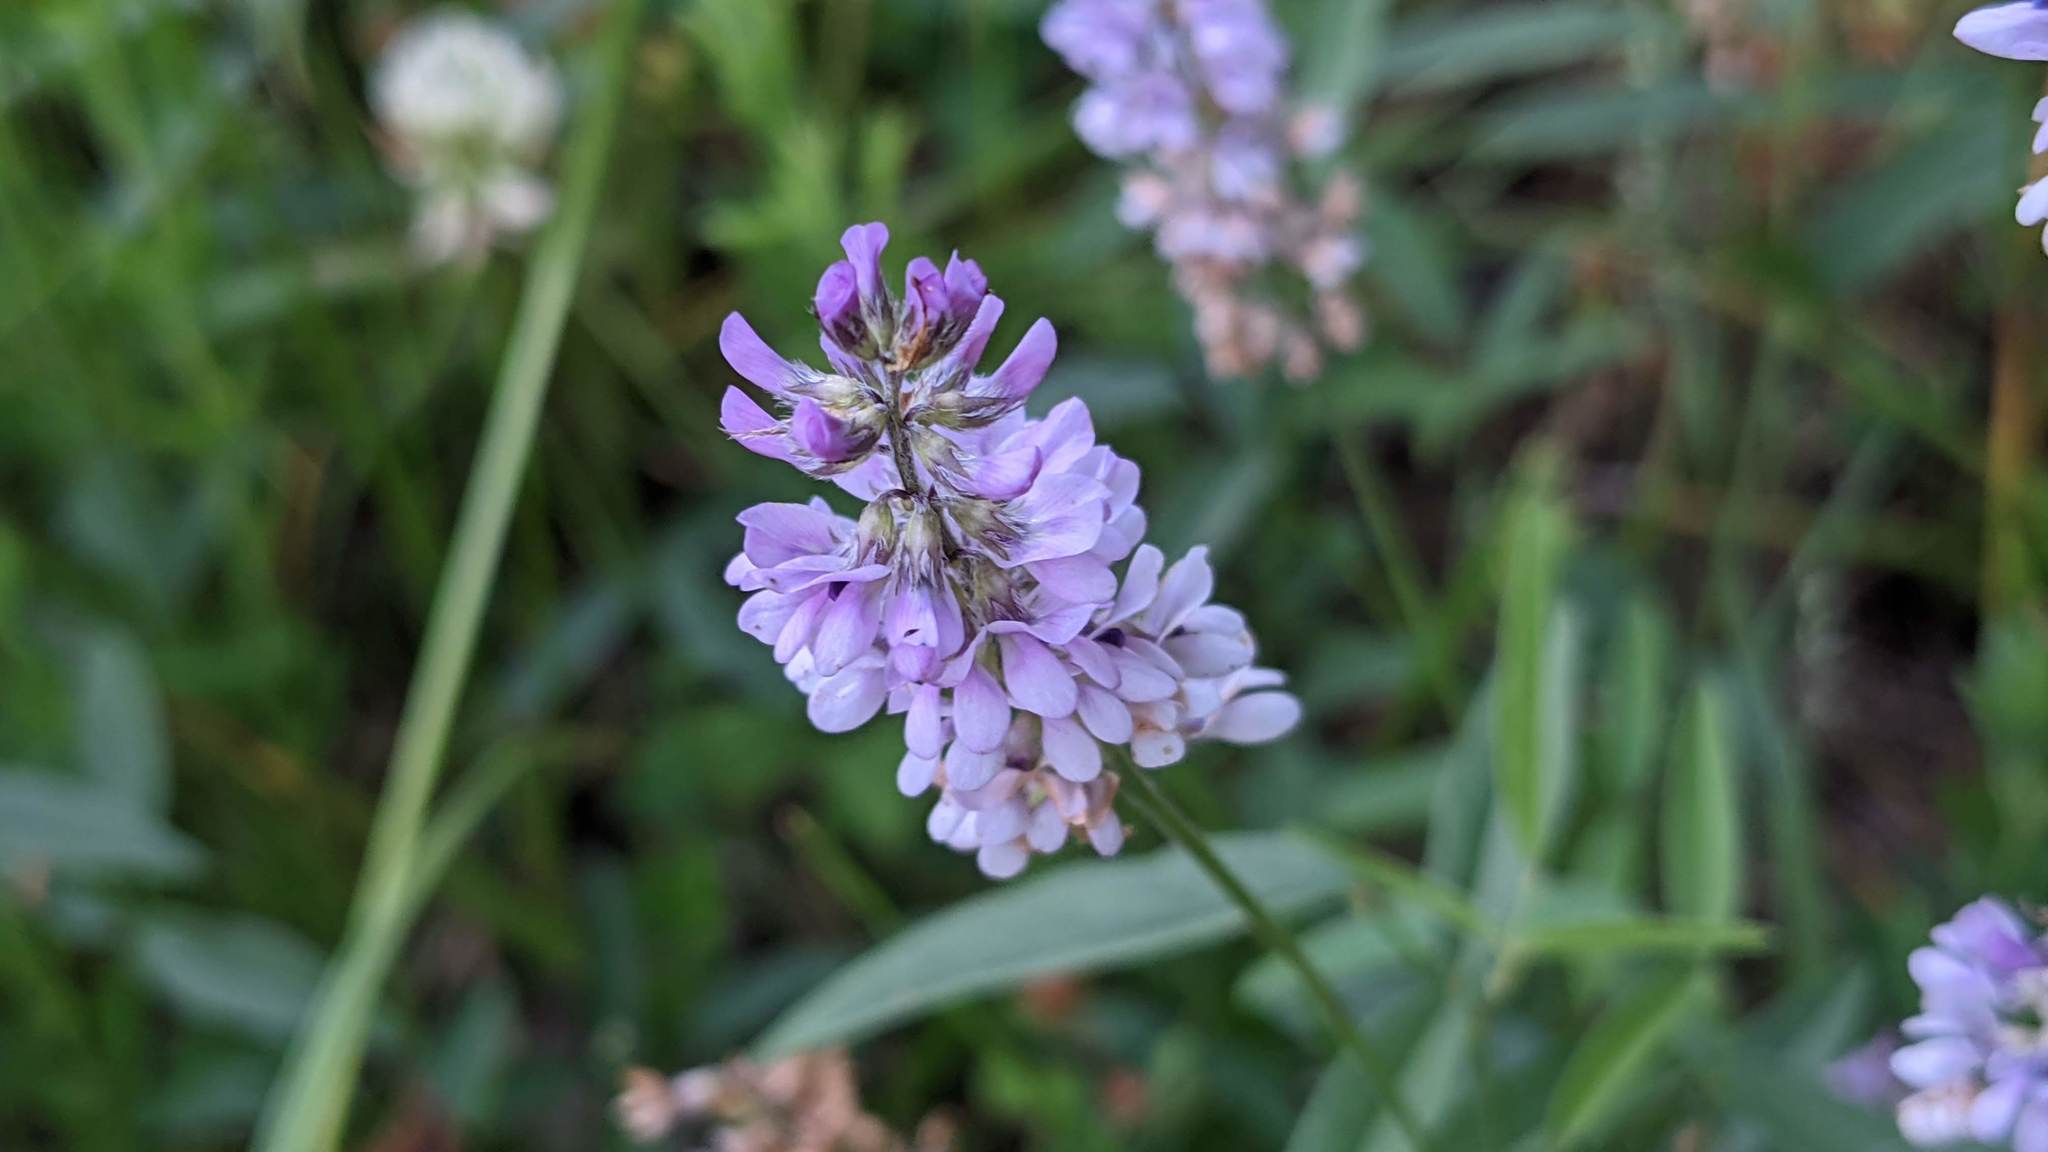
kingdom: Plantae
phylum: Tracheophyta
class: Magnoliopsida
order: Fabales
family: Fabaceae
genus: Orbexilum
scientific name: Orbexilum pedunculatum
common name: Sampson's snakeroot
